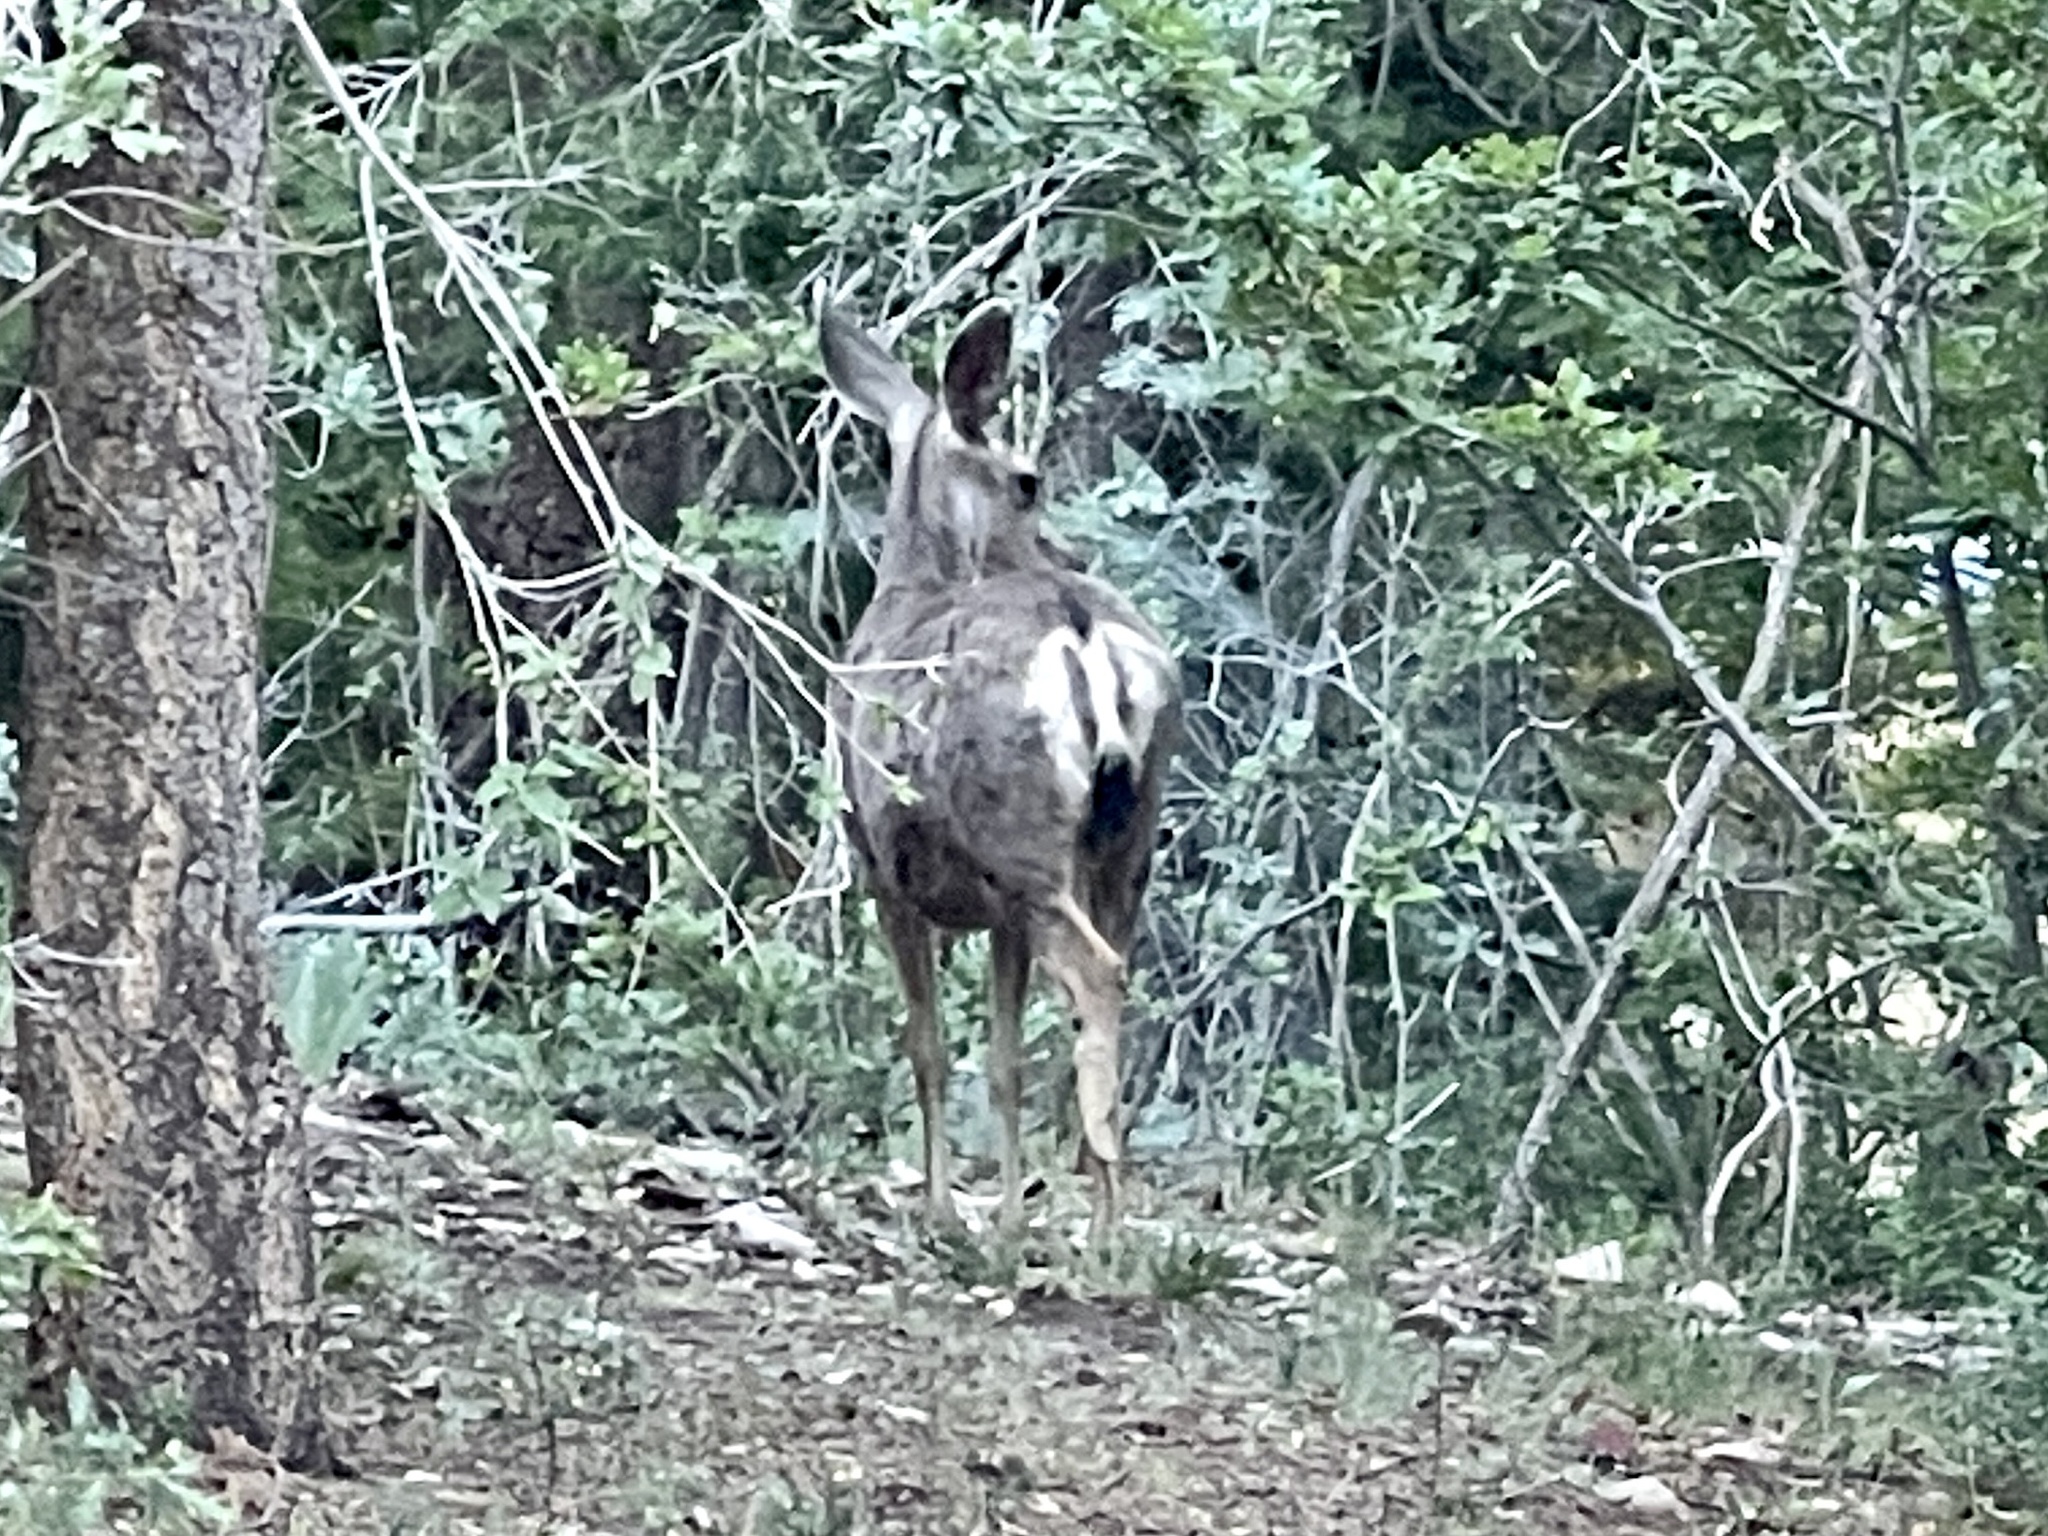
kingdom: Animalia
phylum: Chordata
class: Mammalia
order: Artiodactyla
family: Cervidae
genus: Odocoileus
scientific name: Odocoileus hemionus
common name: Mule deer
